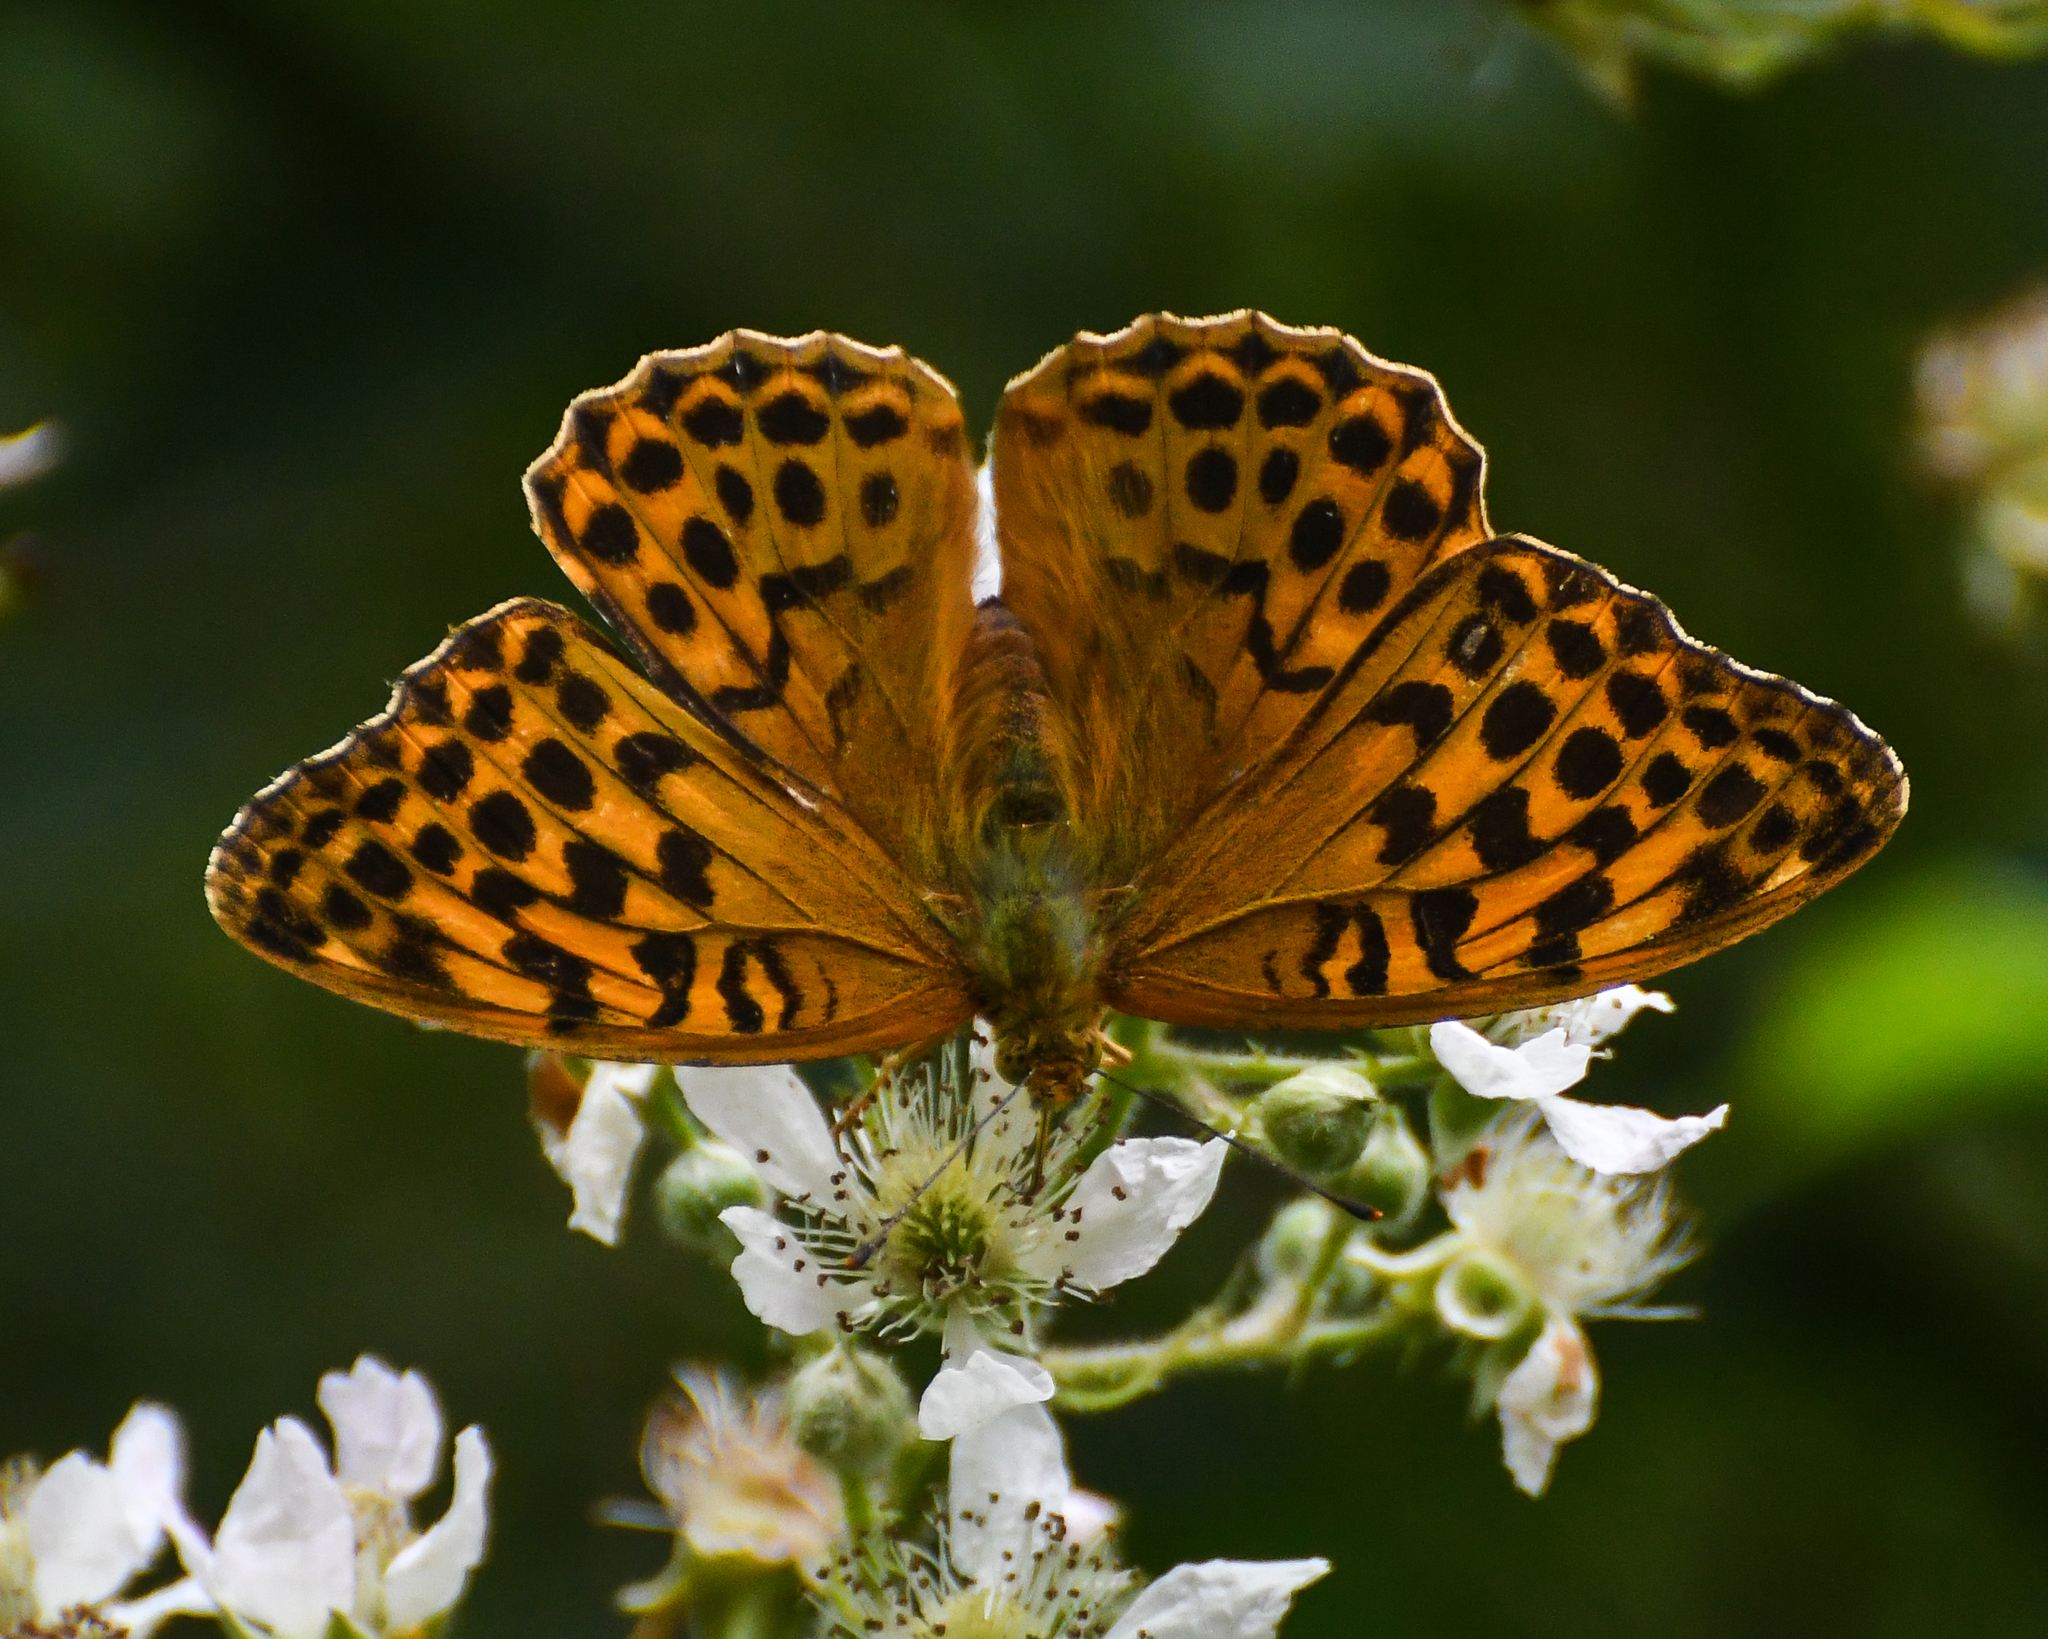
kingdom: Animalia
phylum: Arthropoda
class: Insecta
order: Lepidoptera
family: Nymphalidae
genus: Argynnis
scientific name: Argynnis paphia
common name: Silver-washed fritillary
